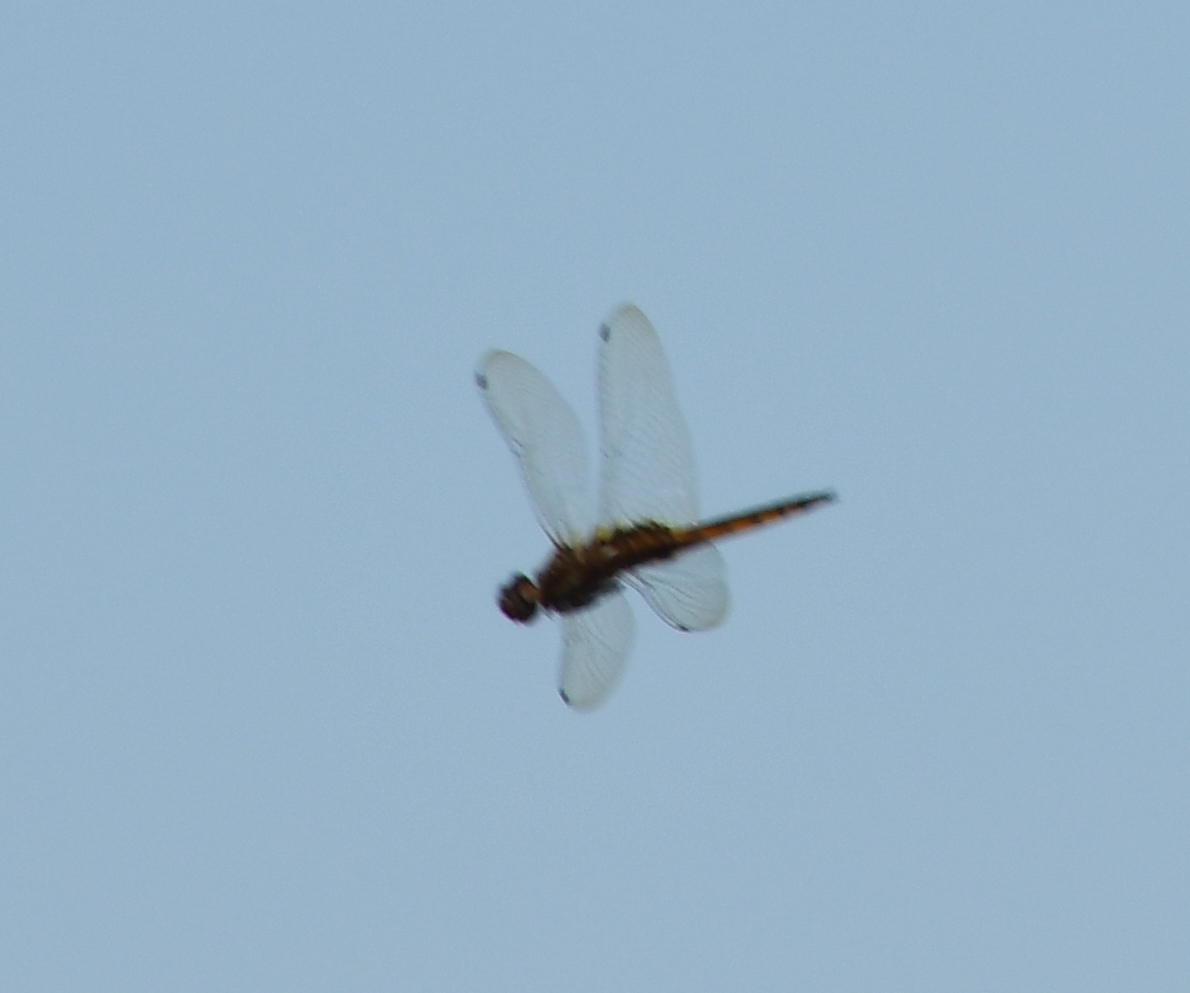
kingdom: Animalia
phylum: Arthropoda
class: Insecta
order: Odonata
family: Libellulidae
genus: Miathyria
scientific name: Miathyria marcella
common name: Hyacinth glider
